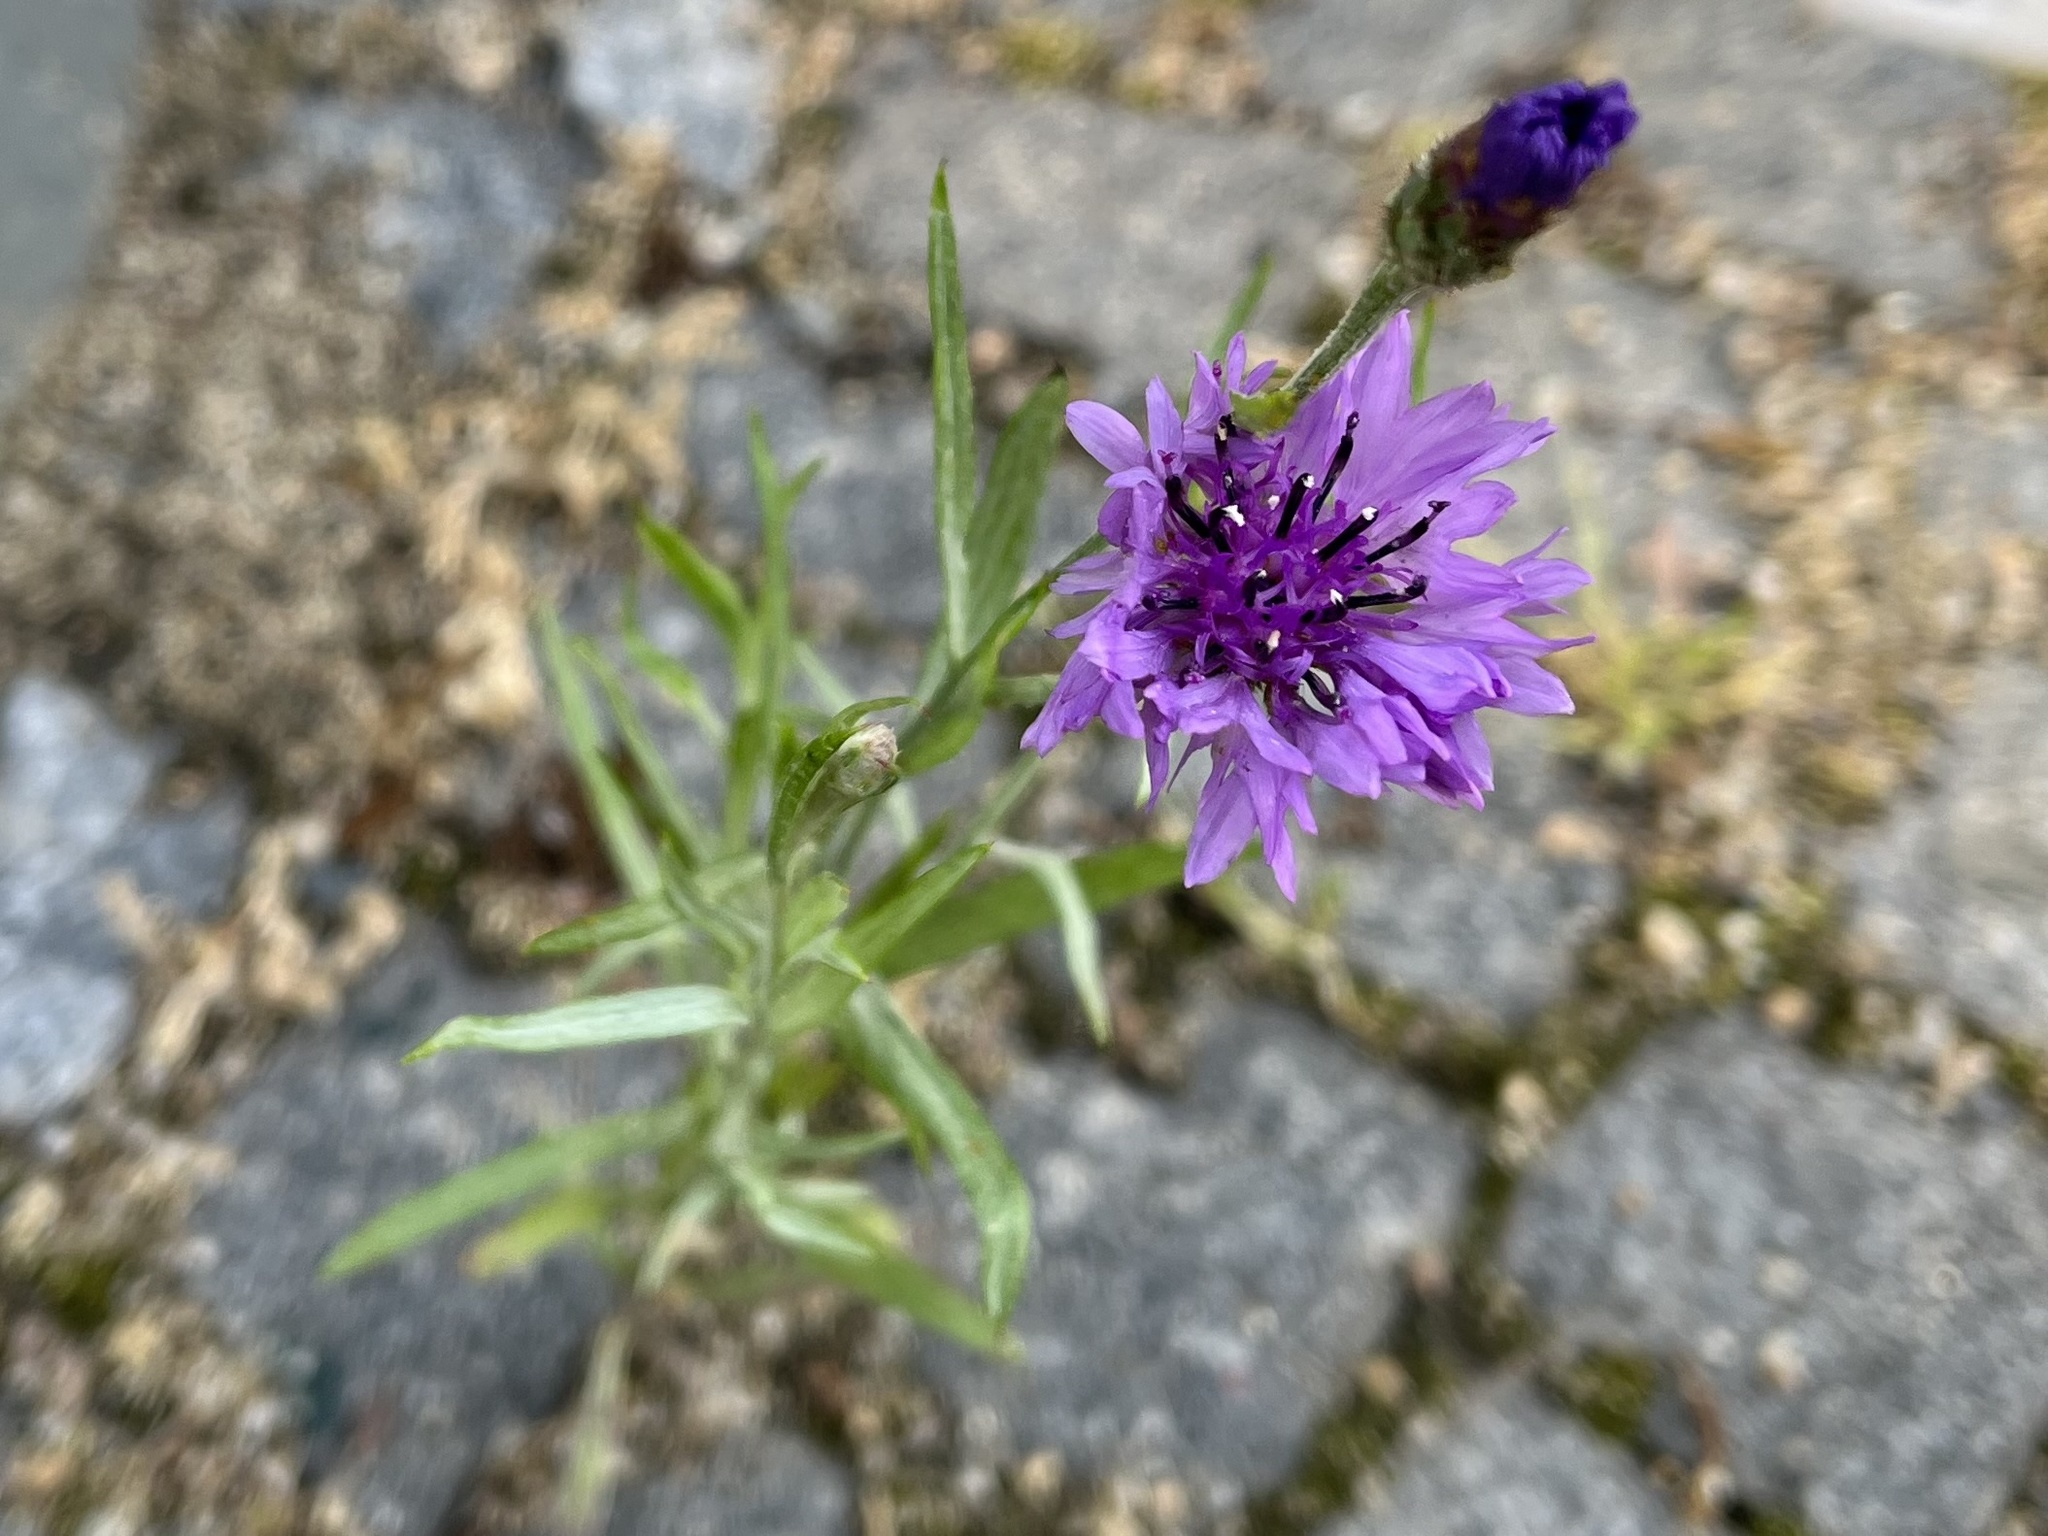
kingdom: Plantae
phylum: Tracheophyta
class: Magnoliopsida
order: Asterales
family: Asteraceae
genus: Centaurea
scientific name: Centaurea cyanus
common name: Cornflower
